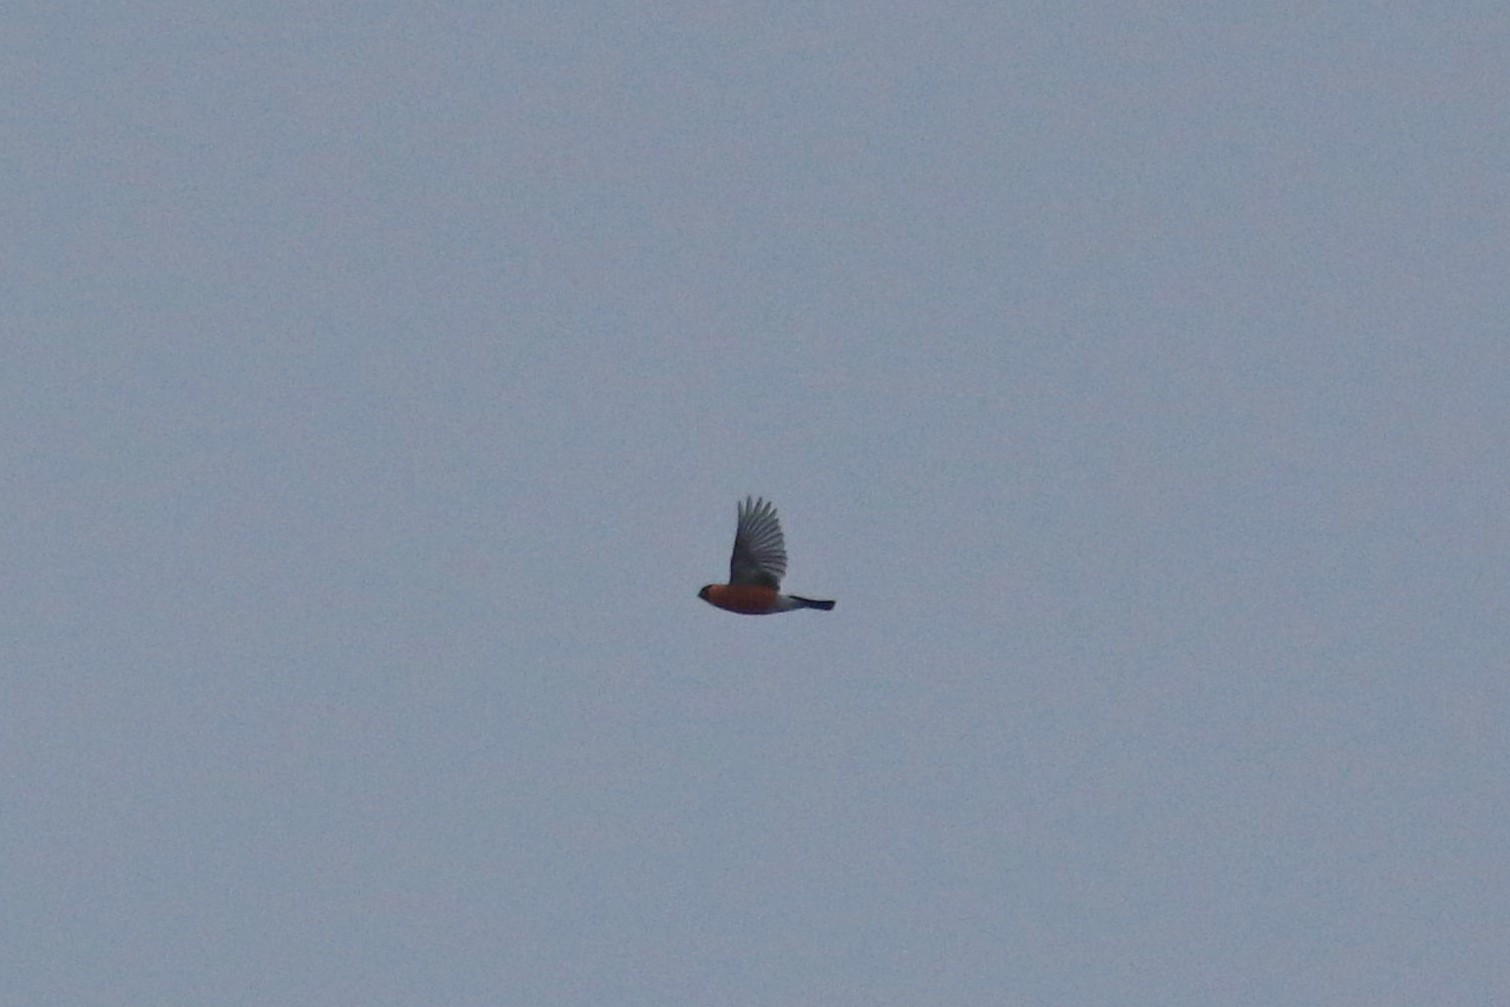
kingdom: Animalia
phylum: Chordata
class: Aves
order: Passeriformes
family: Fringillidae
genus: Pyrrhula
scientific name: Pyrrhula pyrrhula
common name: Eurasian bullfinch
